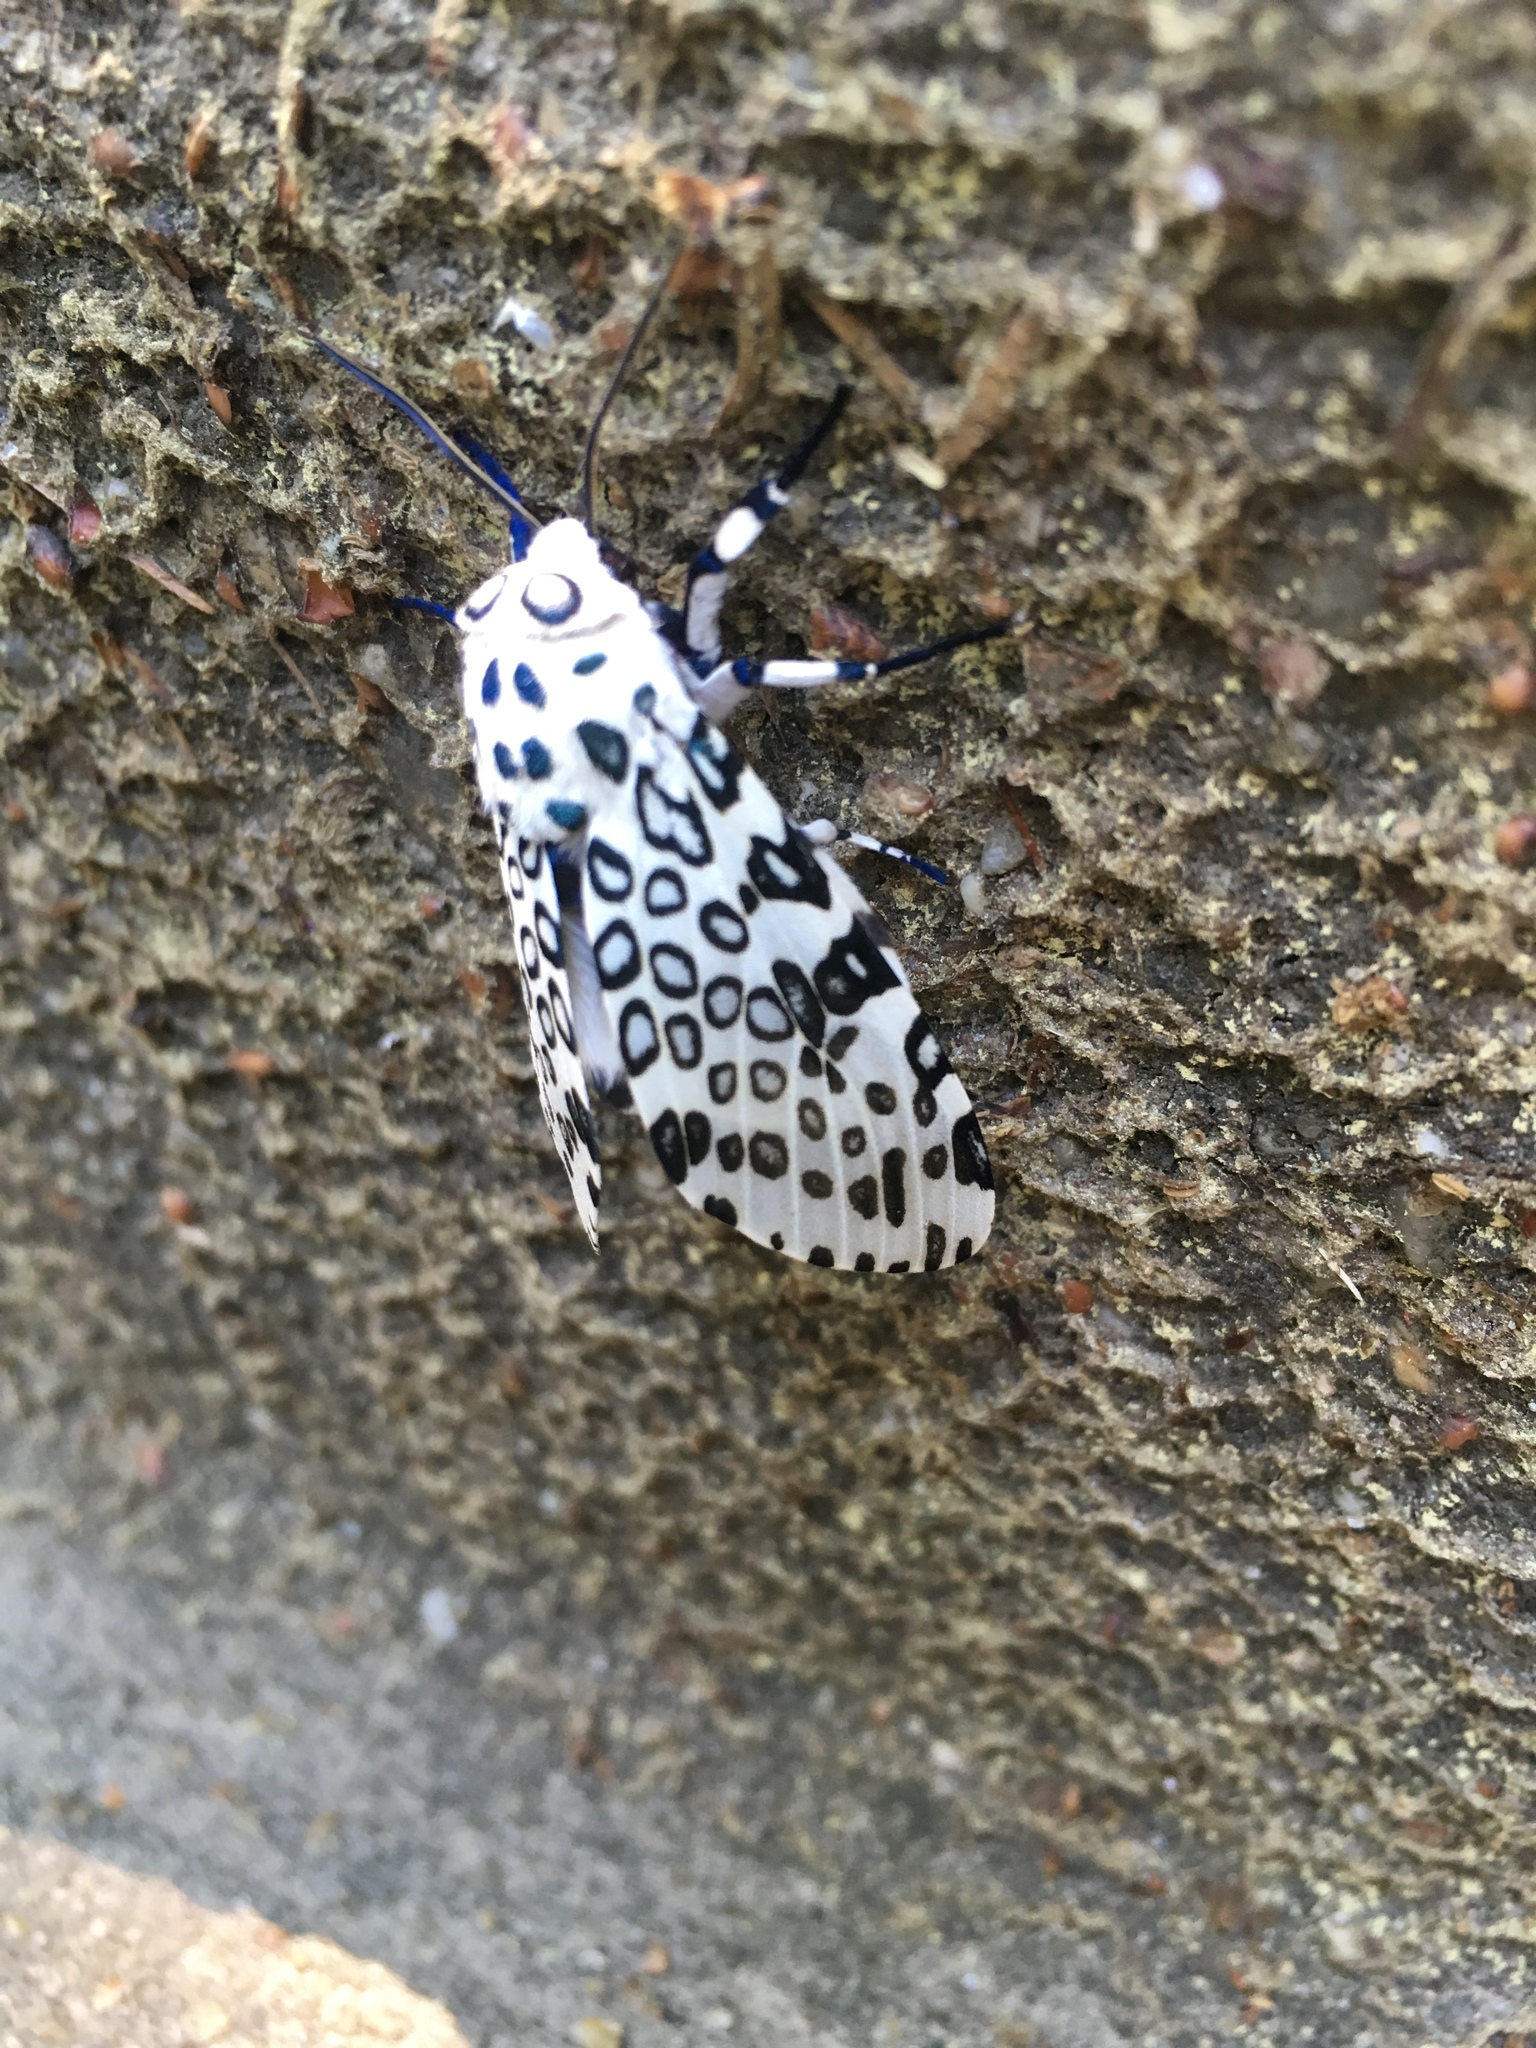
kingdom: Animalia
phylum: Arthropoda
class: Insecta
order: Lepidoptera
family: Erebidae
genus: Hypercompe
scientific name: Hypercompe scribonia
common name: Giant leopard moth
